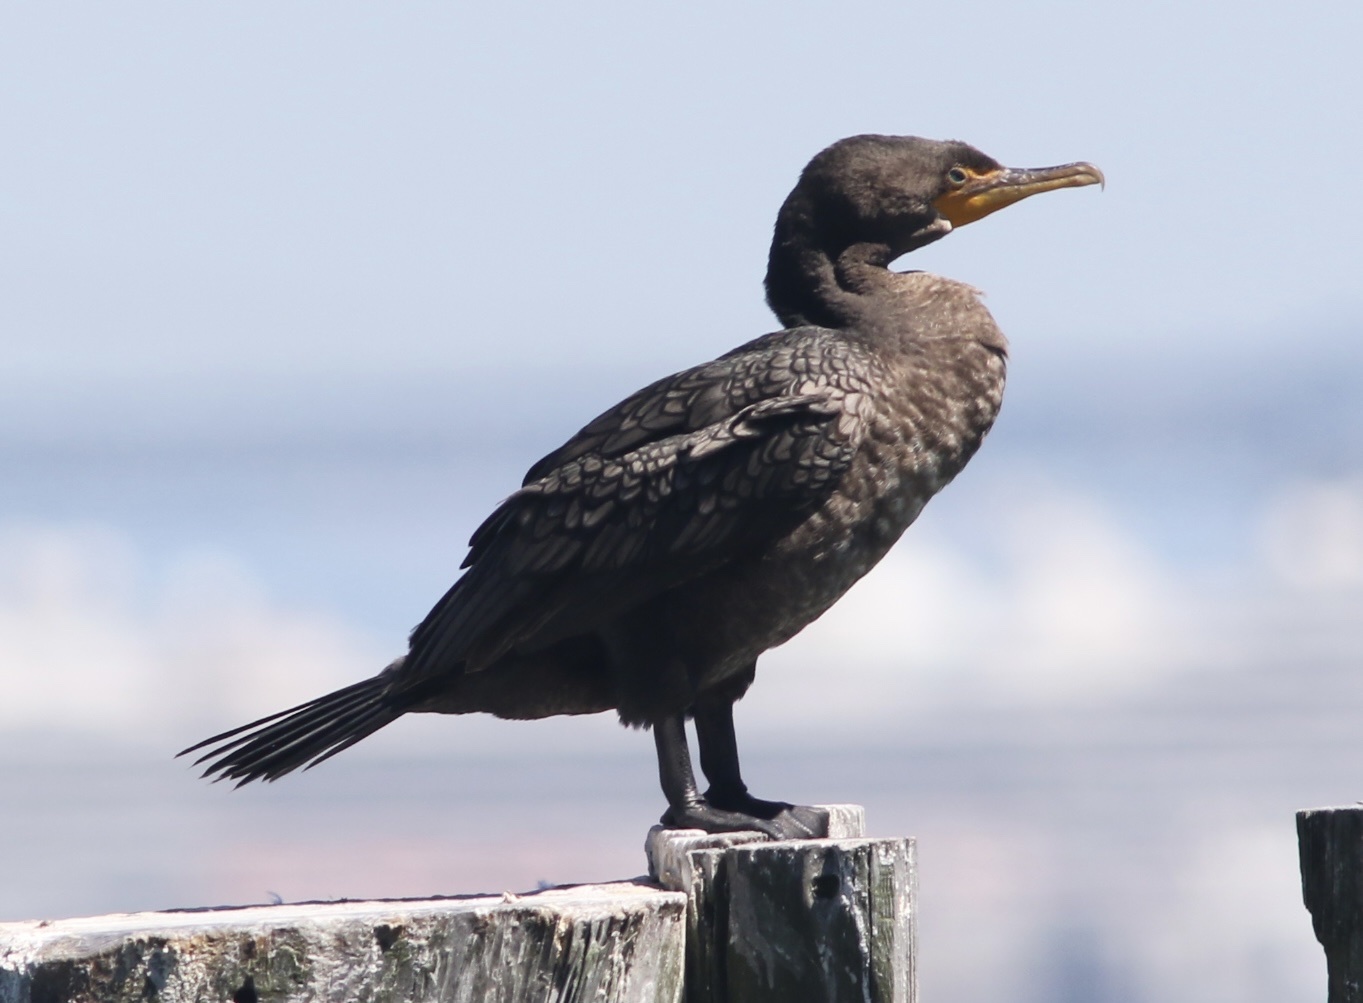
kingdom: Animalia
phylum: Chordata
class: Aves
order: Suliformes
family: Phalacrocoracidae
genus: Phalacrocorax
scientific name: Phalacrocorax auritus
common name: Double-crested cormorant
